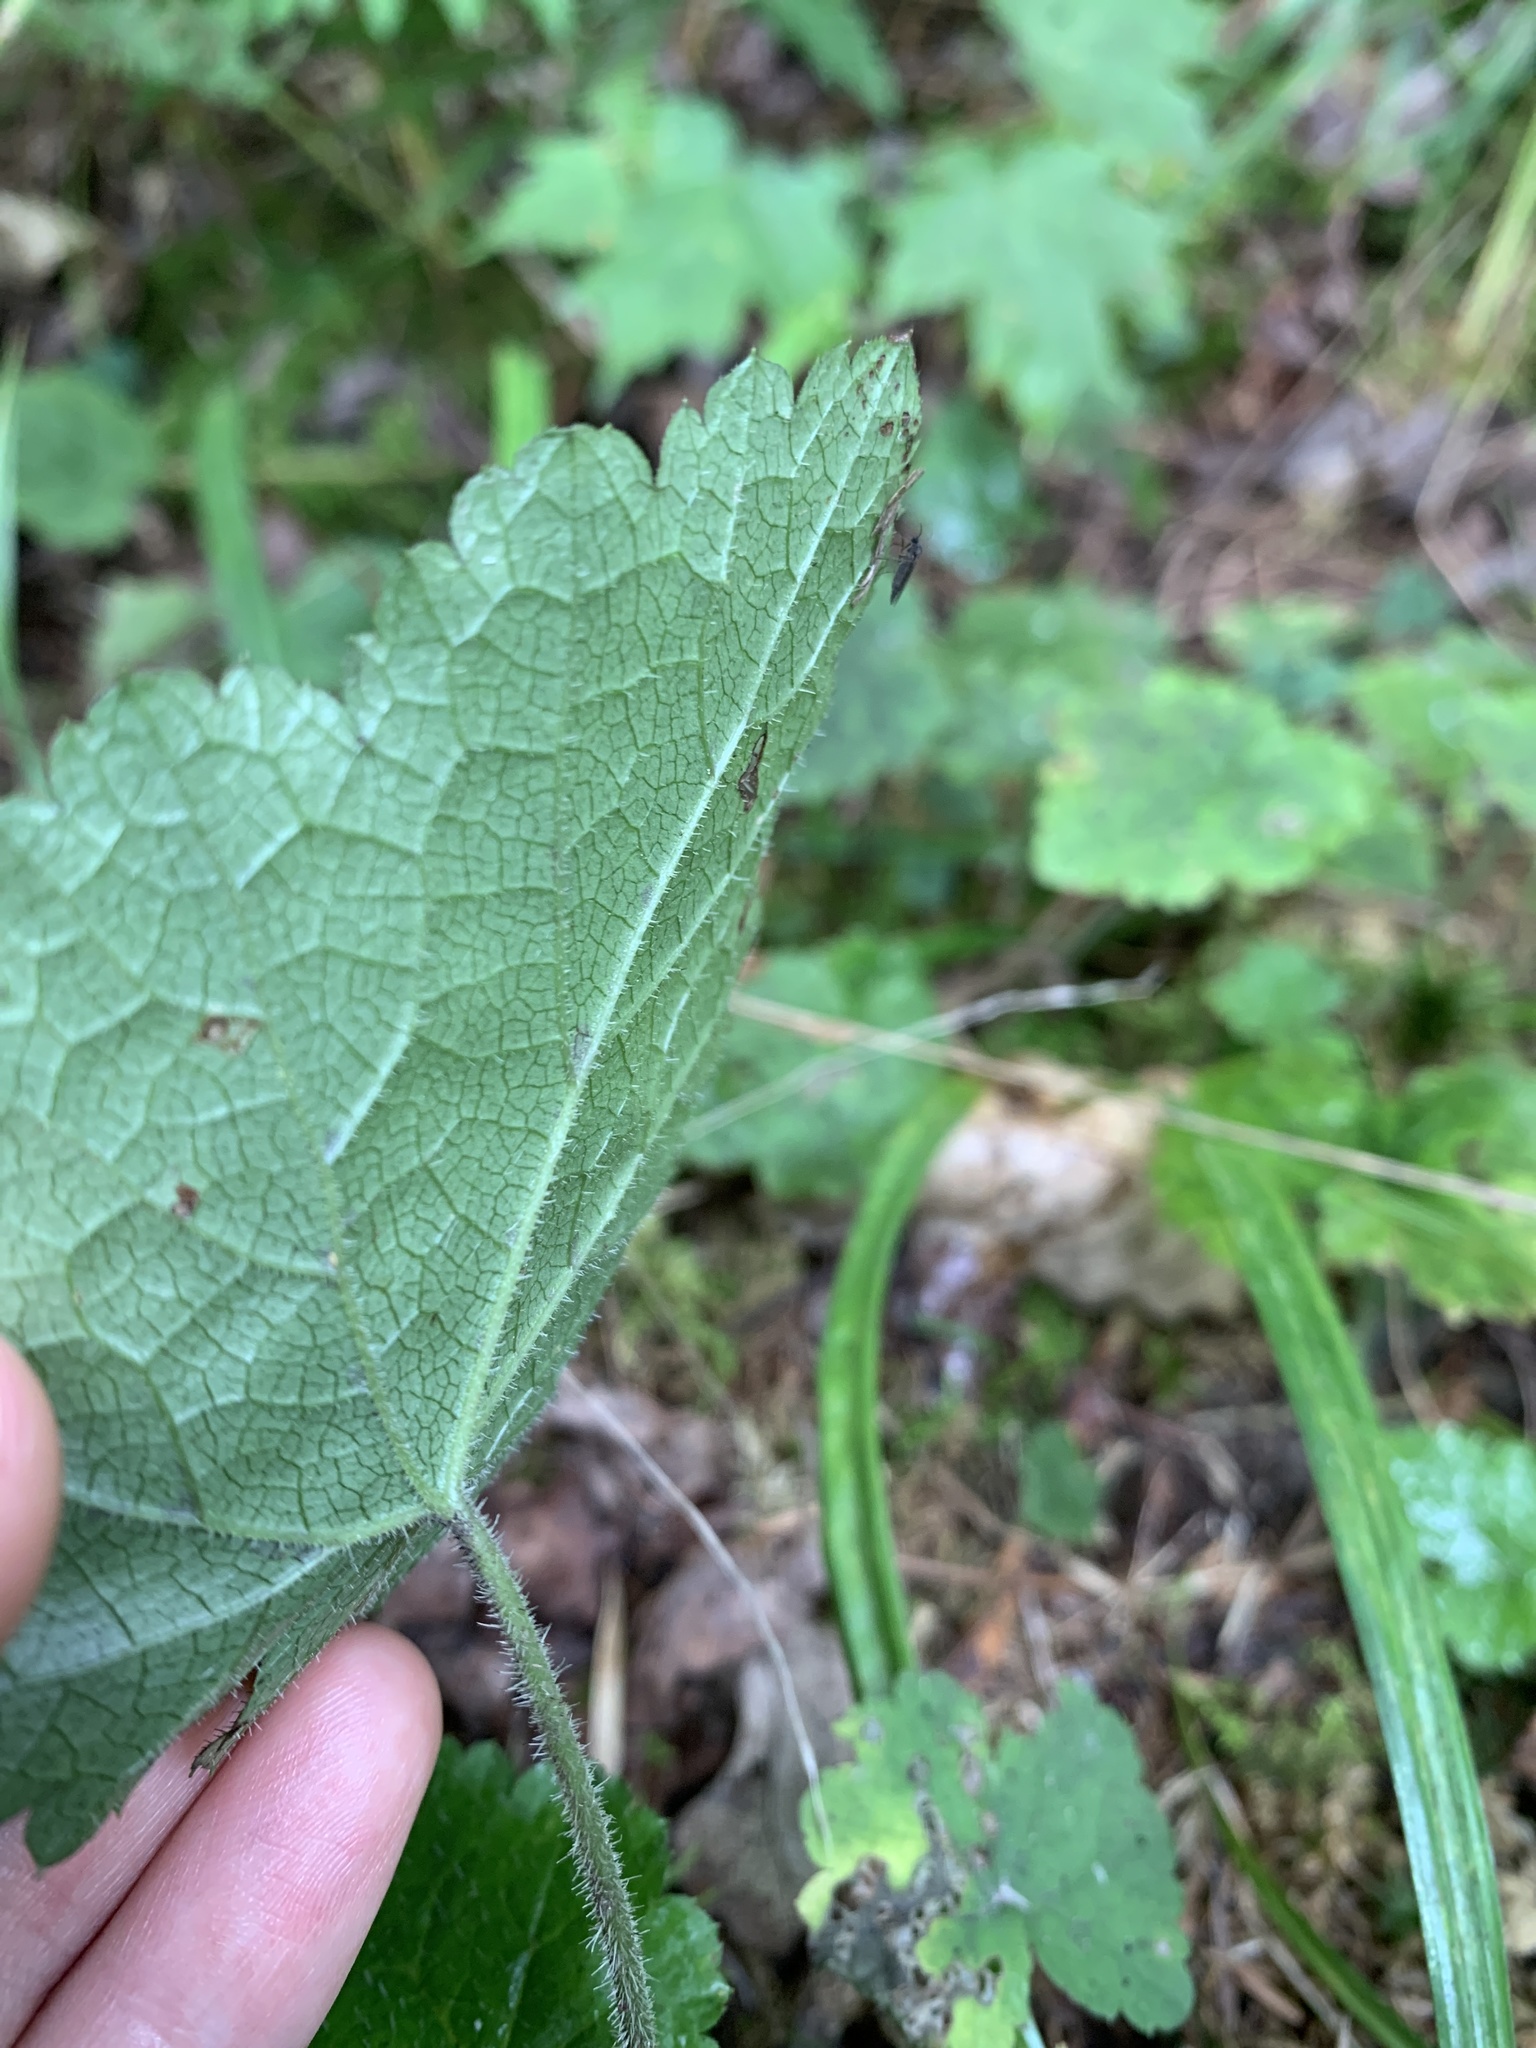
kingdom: Plantae
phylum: Tracheophyta
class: Magnoliopsida
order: Saxifragales
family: Saxifragaceae
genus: Tiarella
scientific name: Tiarella stolonifera
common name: Stoloniferous foamflower
